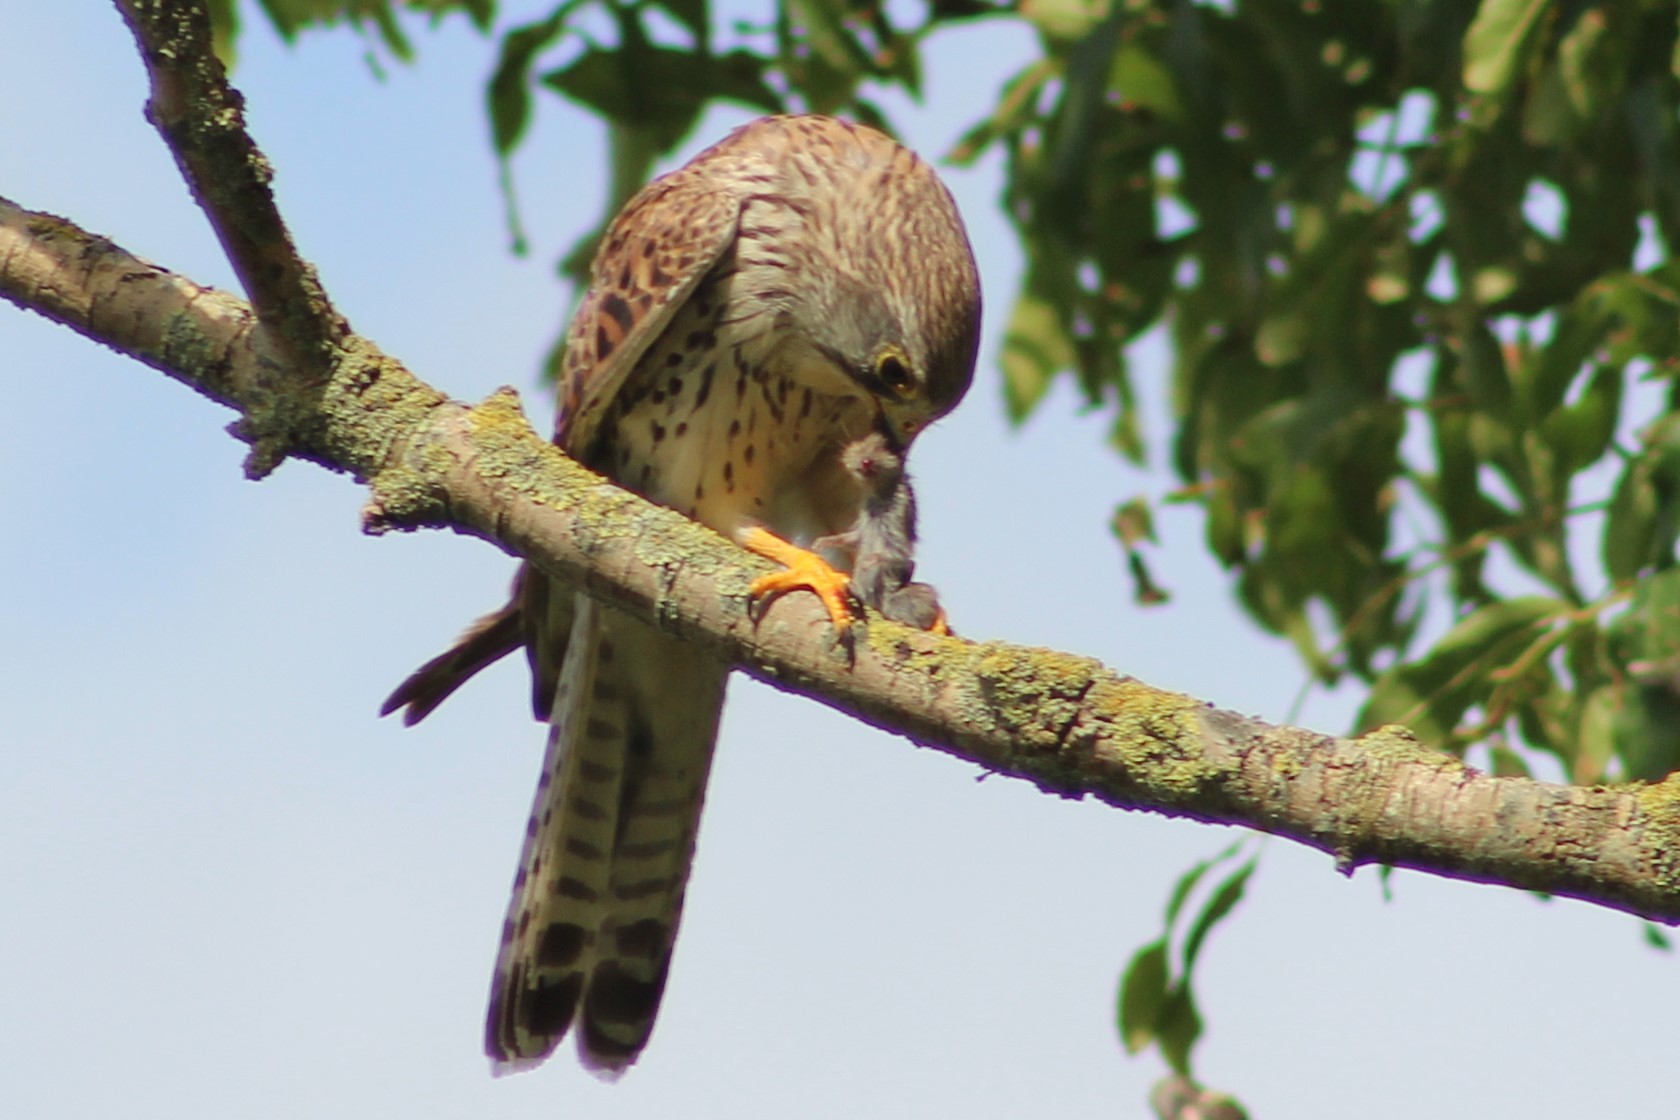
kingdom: Animalia
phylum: Chordata
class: Aves
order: Falconiformes
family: Falconidae
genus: Falco
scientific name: Falco tinnunculus
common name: Common kestrel
